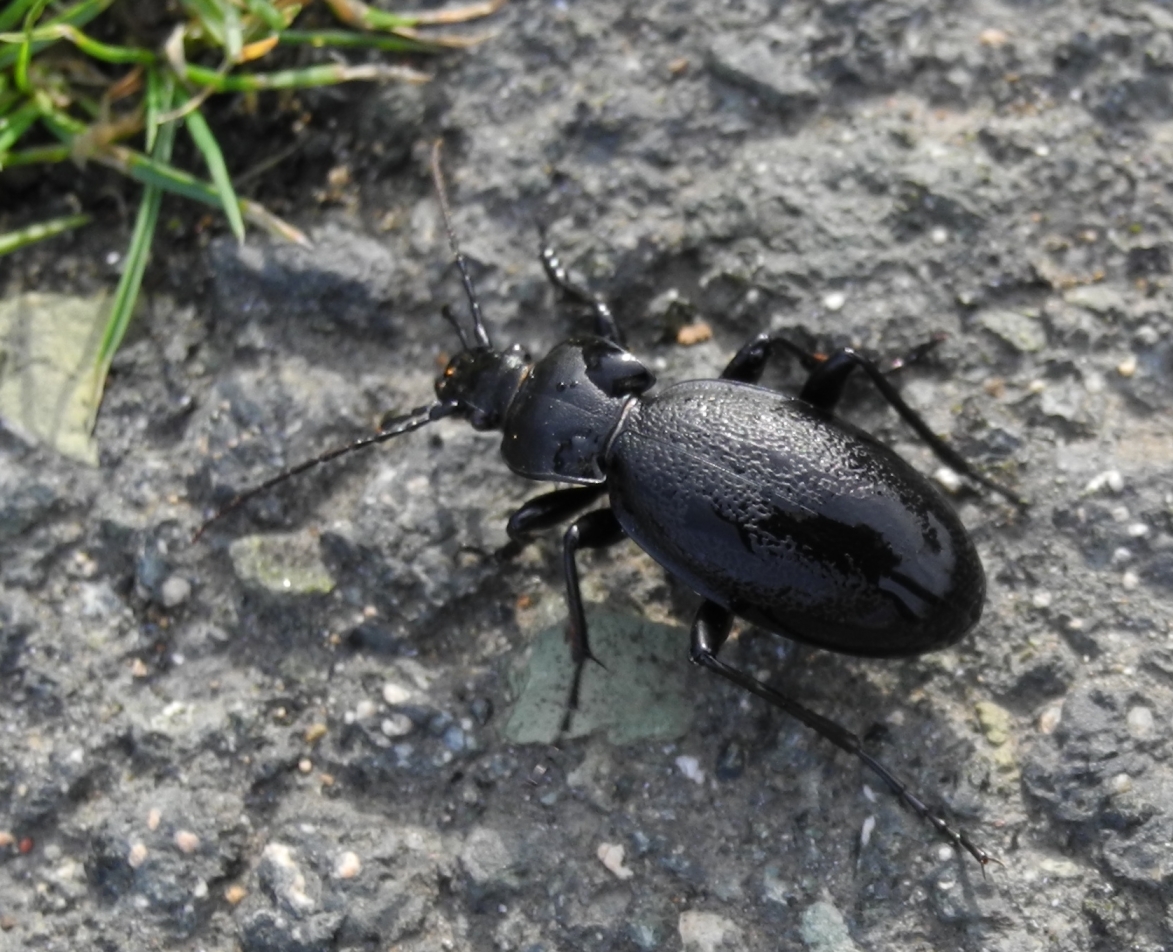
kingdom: Animalia
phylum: Arthropoda
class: Insecta
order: Coleoptera
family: Carabidae
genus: Carabus
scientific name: Carabus coriaceus
